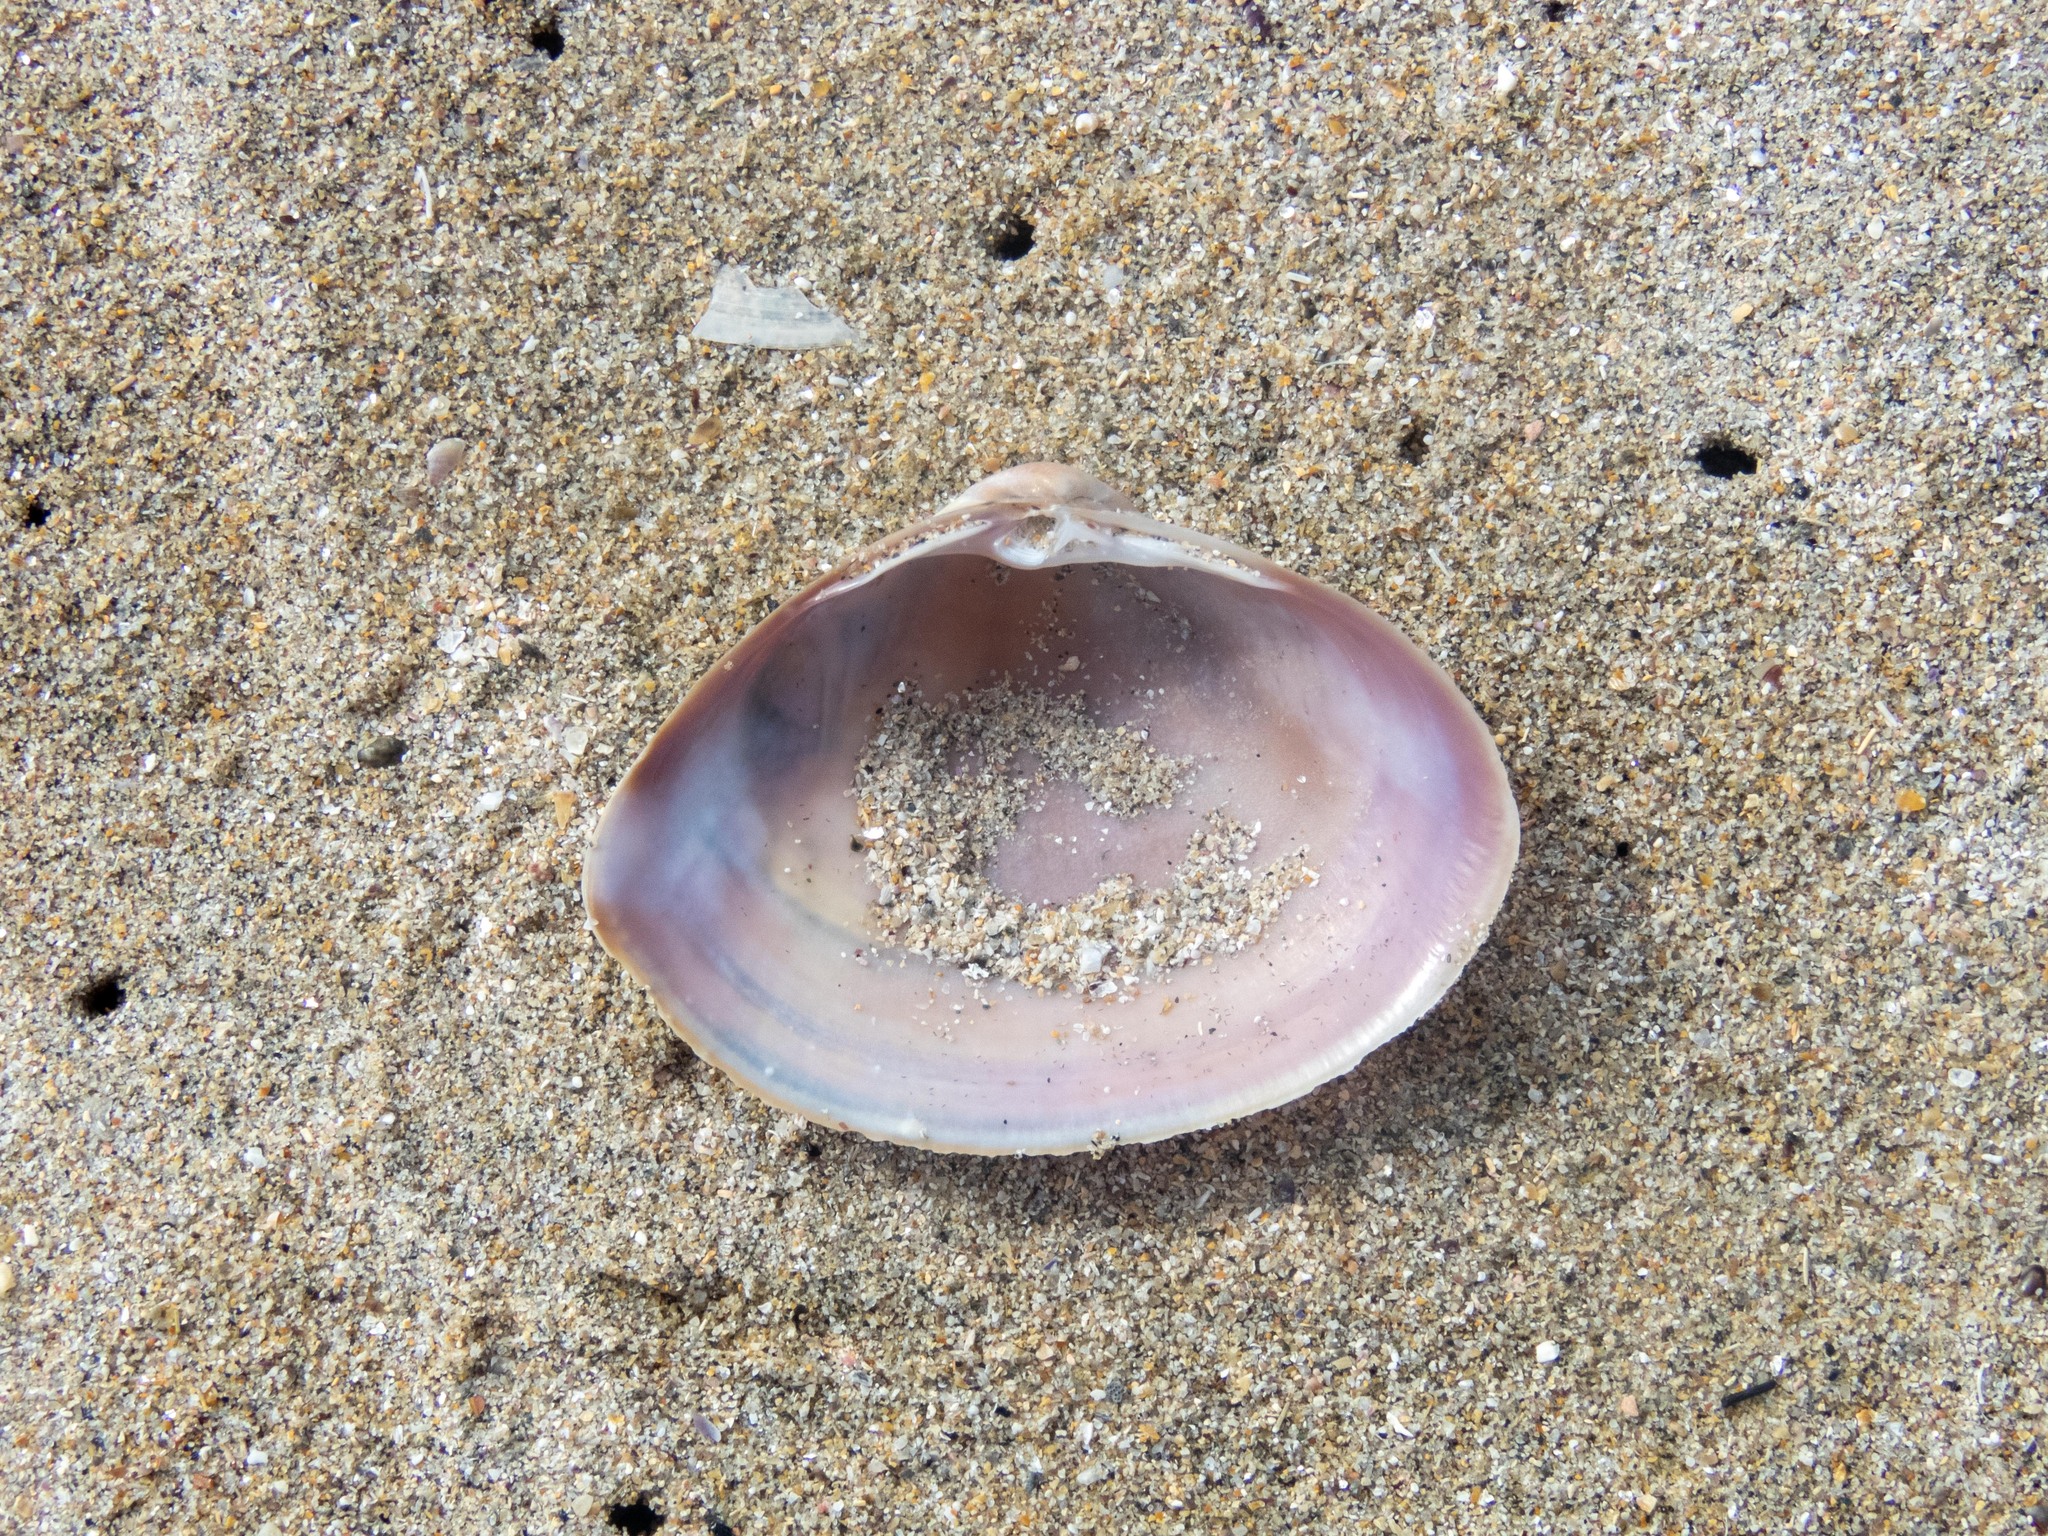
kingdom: Animalia
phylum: Mollusca
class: Bivalvia
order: Venerida
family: Mactridae
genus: Mactra
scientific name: Mactra stultorum
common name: Rayed trough shell
